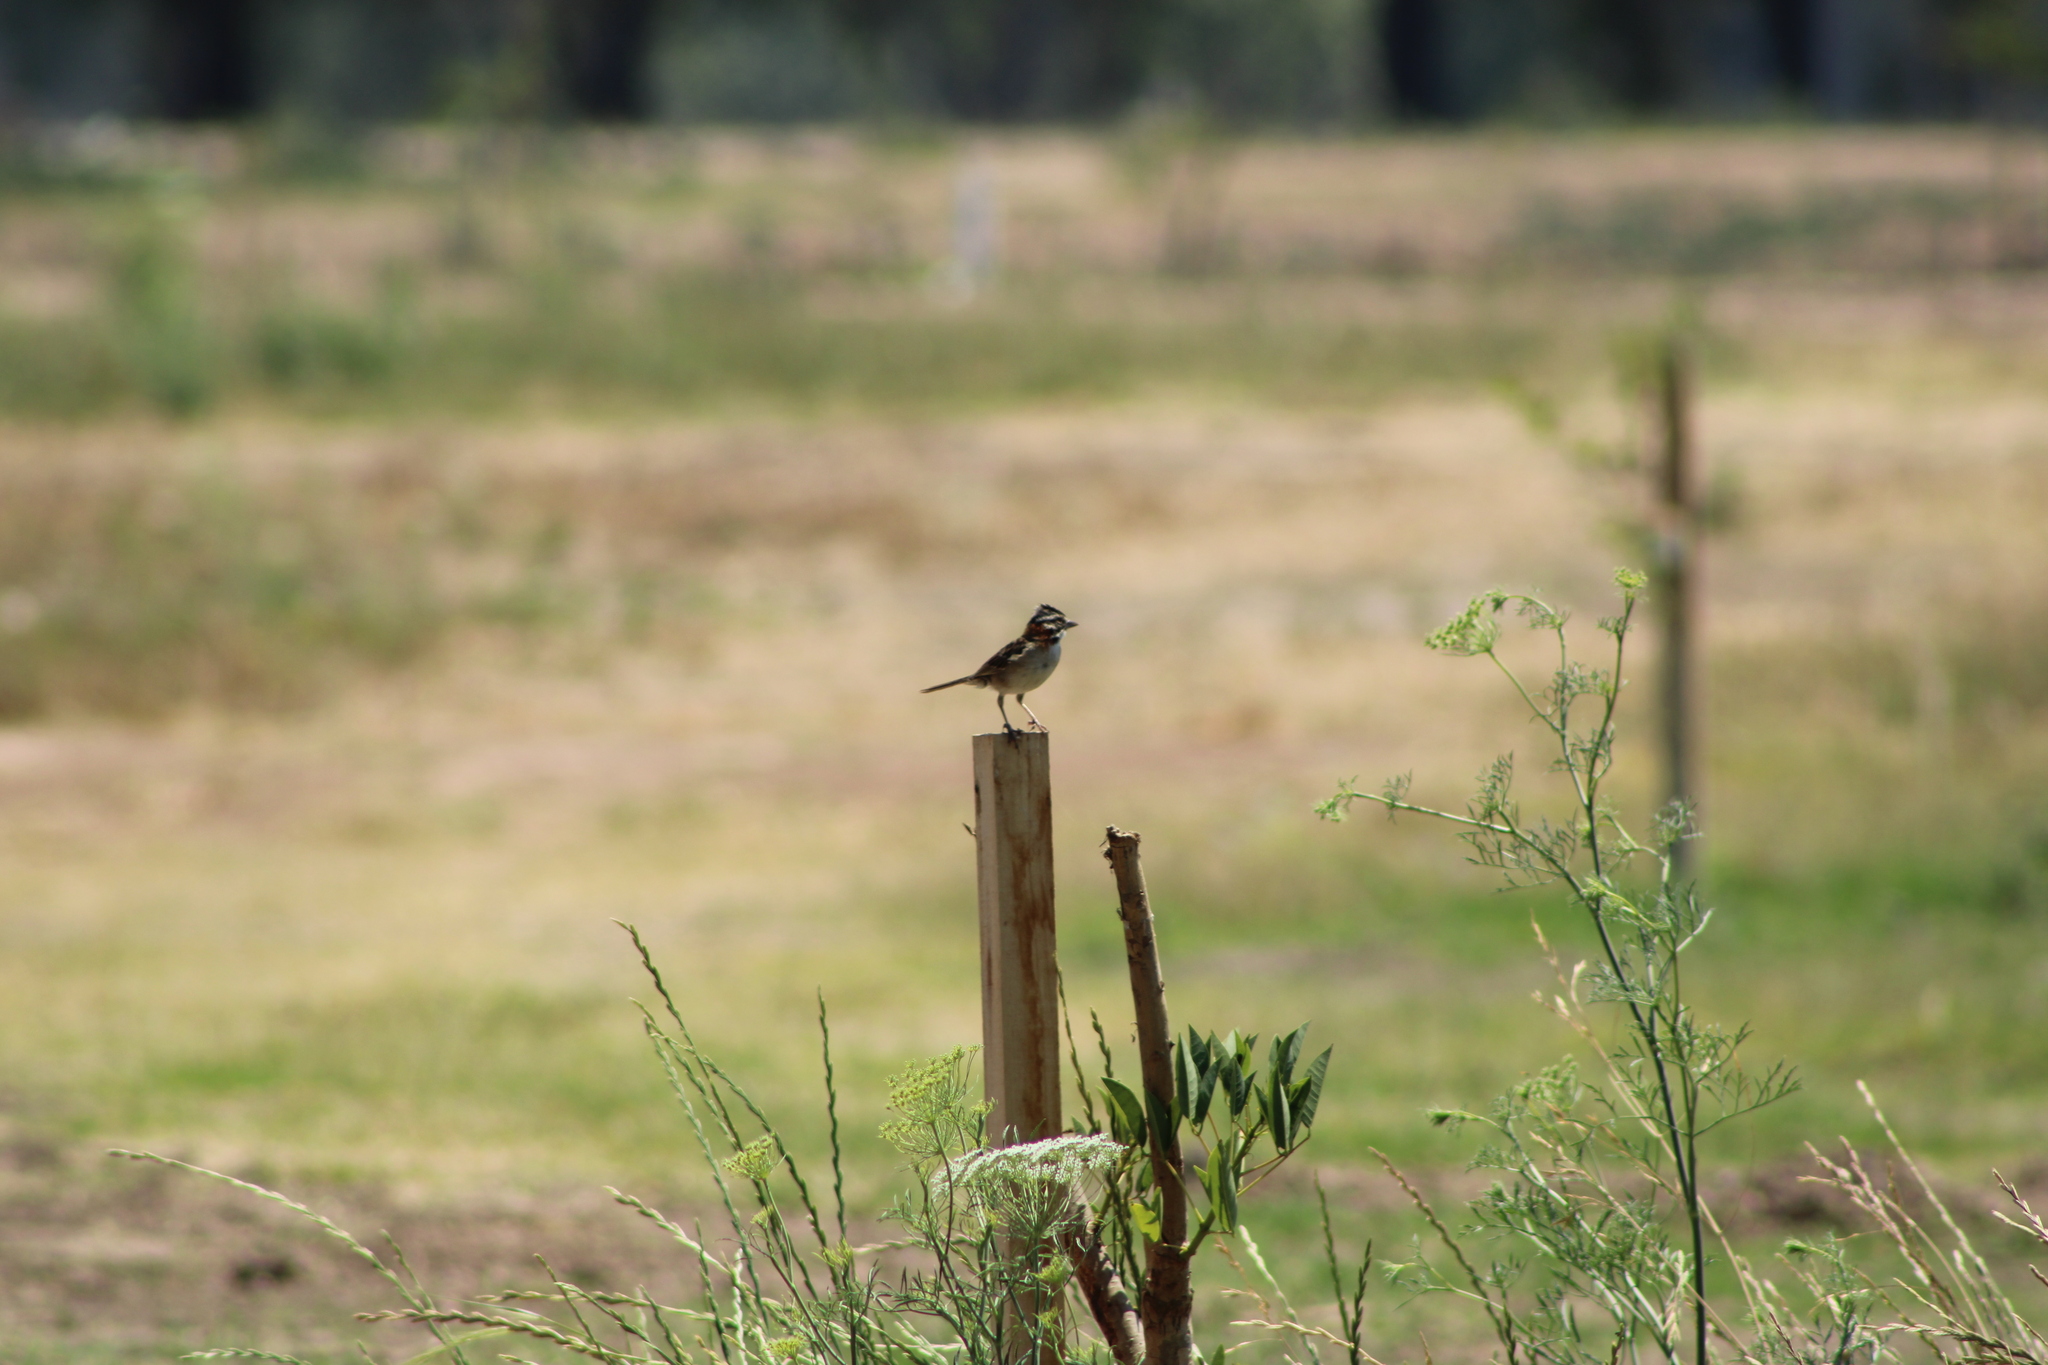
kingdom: Animalia
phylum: Chordata
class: Aves
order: Passeriformes
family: Passerellidae
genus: Zonotrichia
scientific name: Zonotrichia capensis
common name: Rufous-collared sparrow
